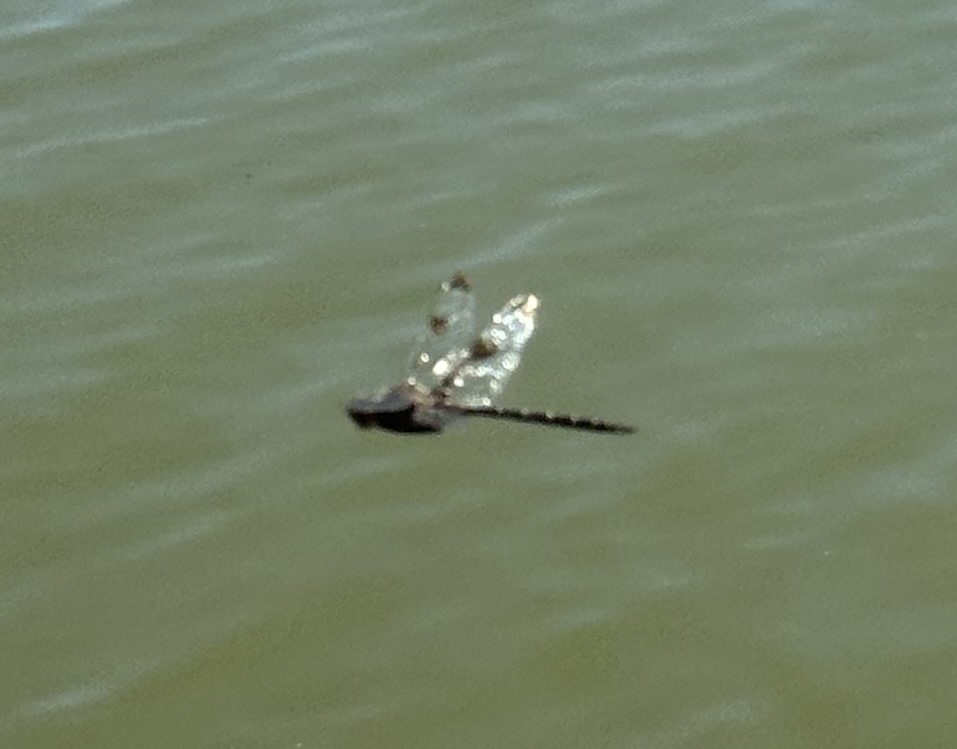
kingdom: Animalia
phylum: Arthropoda
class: Insecta
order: Odonata
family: Corduliidae
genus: Epitheca
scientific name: Epitheca princeps
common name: Prince baskettail
